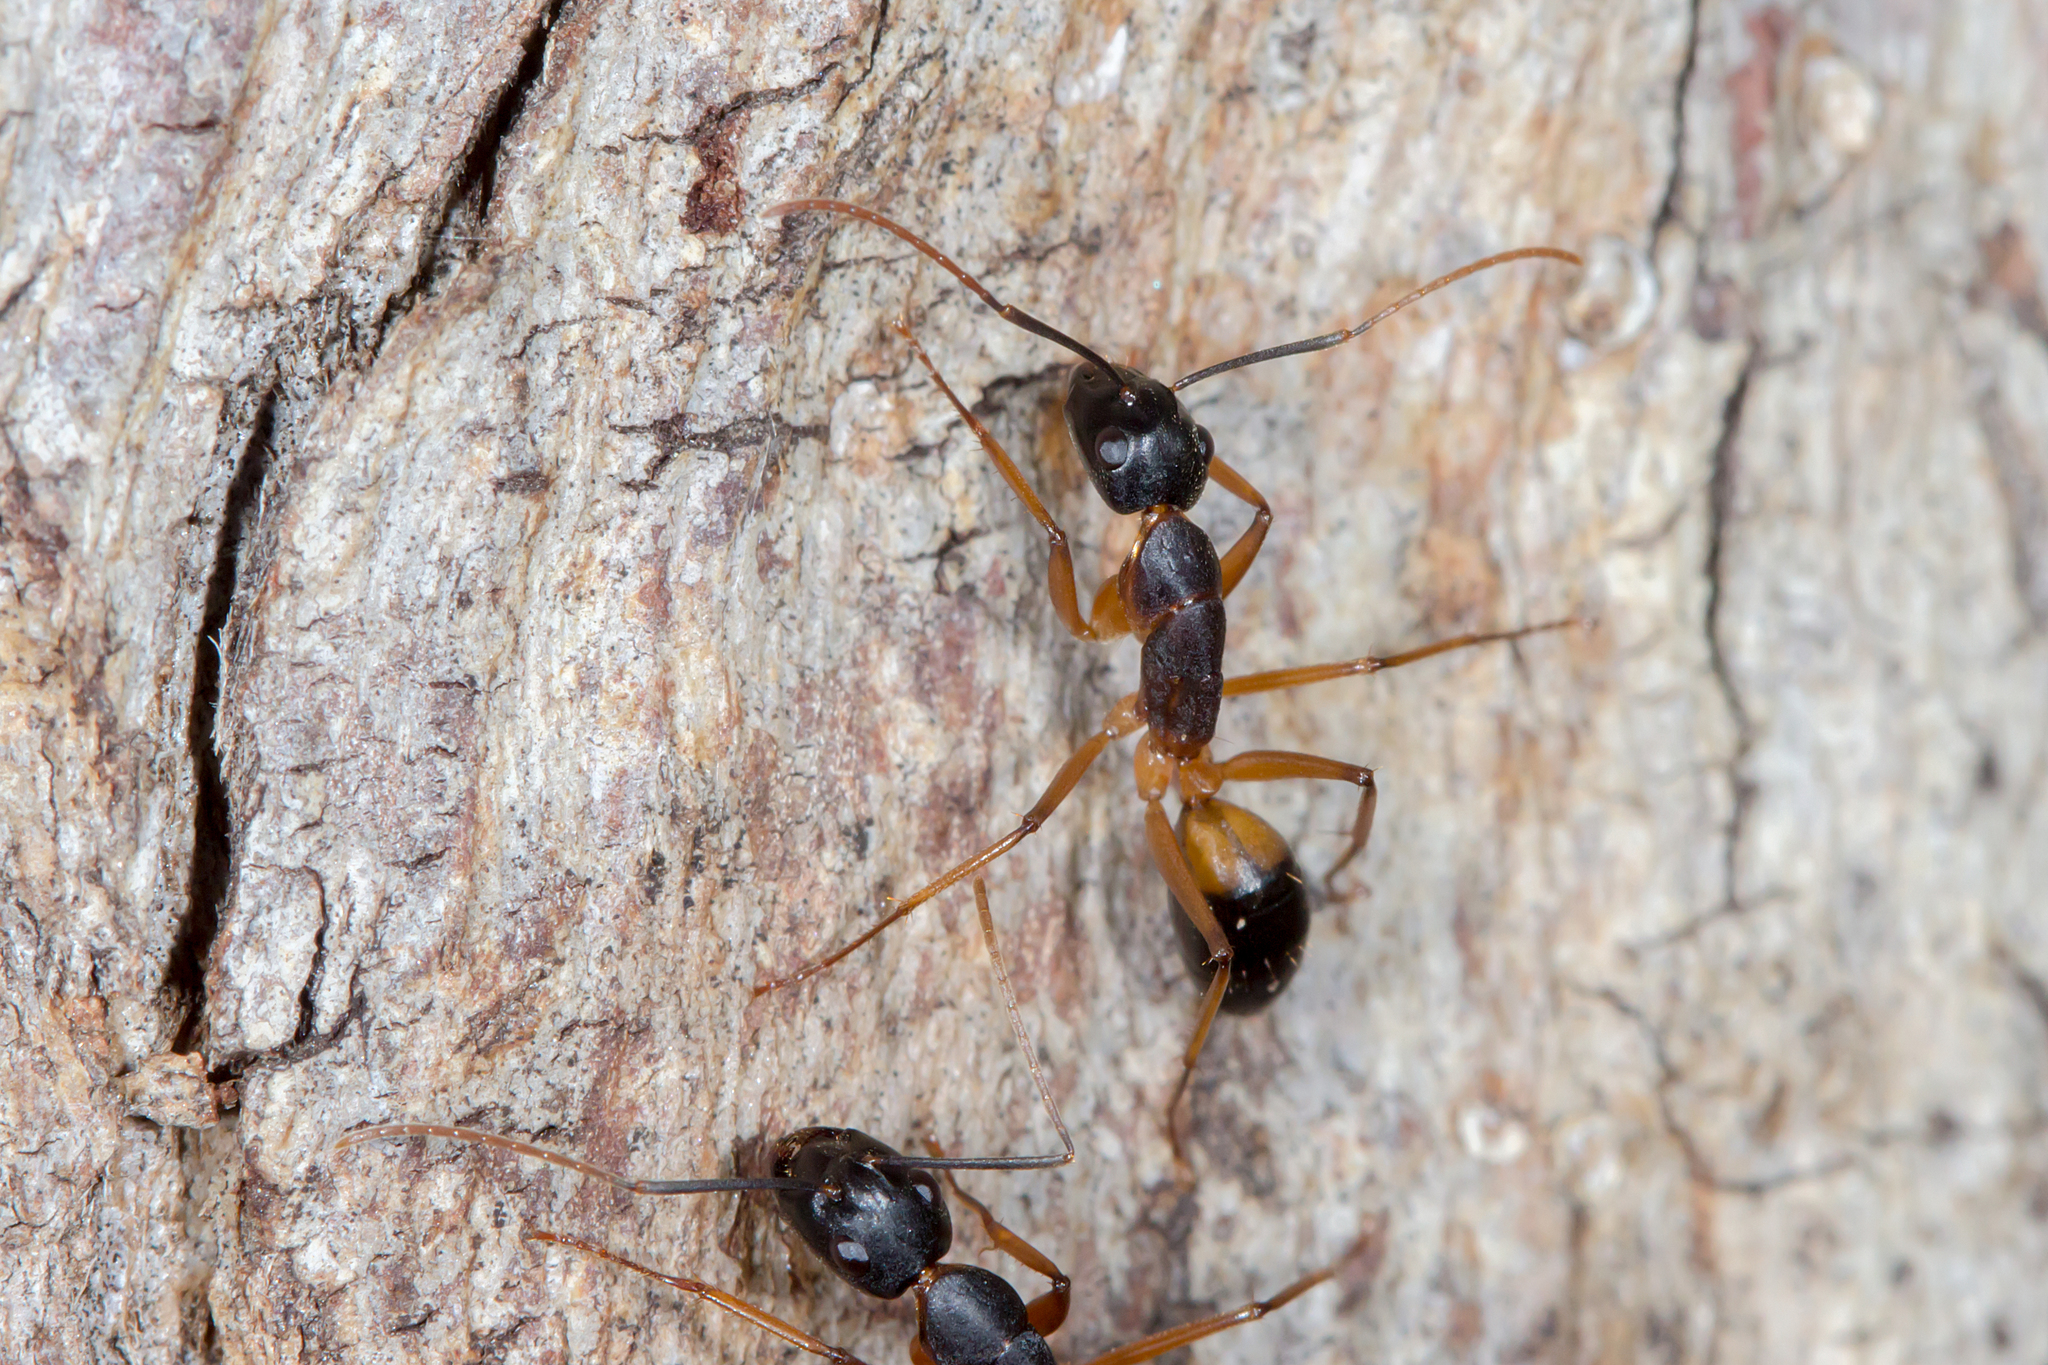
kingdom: Animalia
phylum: Arthropoda
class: Insecta
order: Hymenoptera
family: Formicidae
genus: Camponotus
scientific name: Camponotus consobrinus
